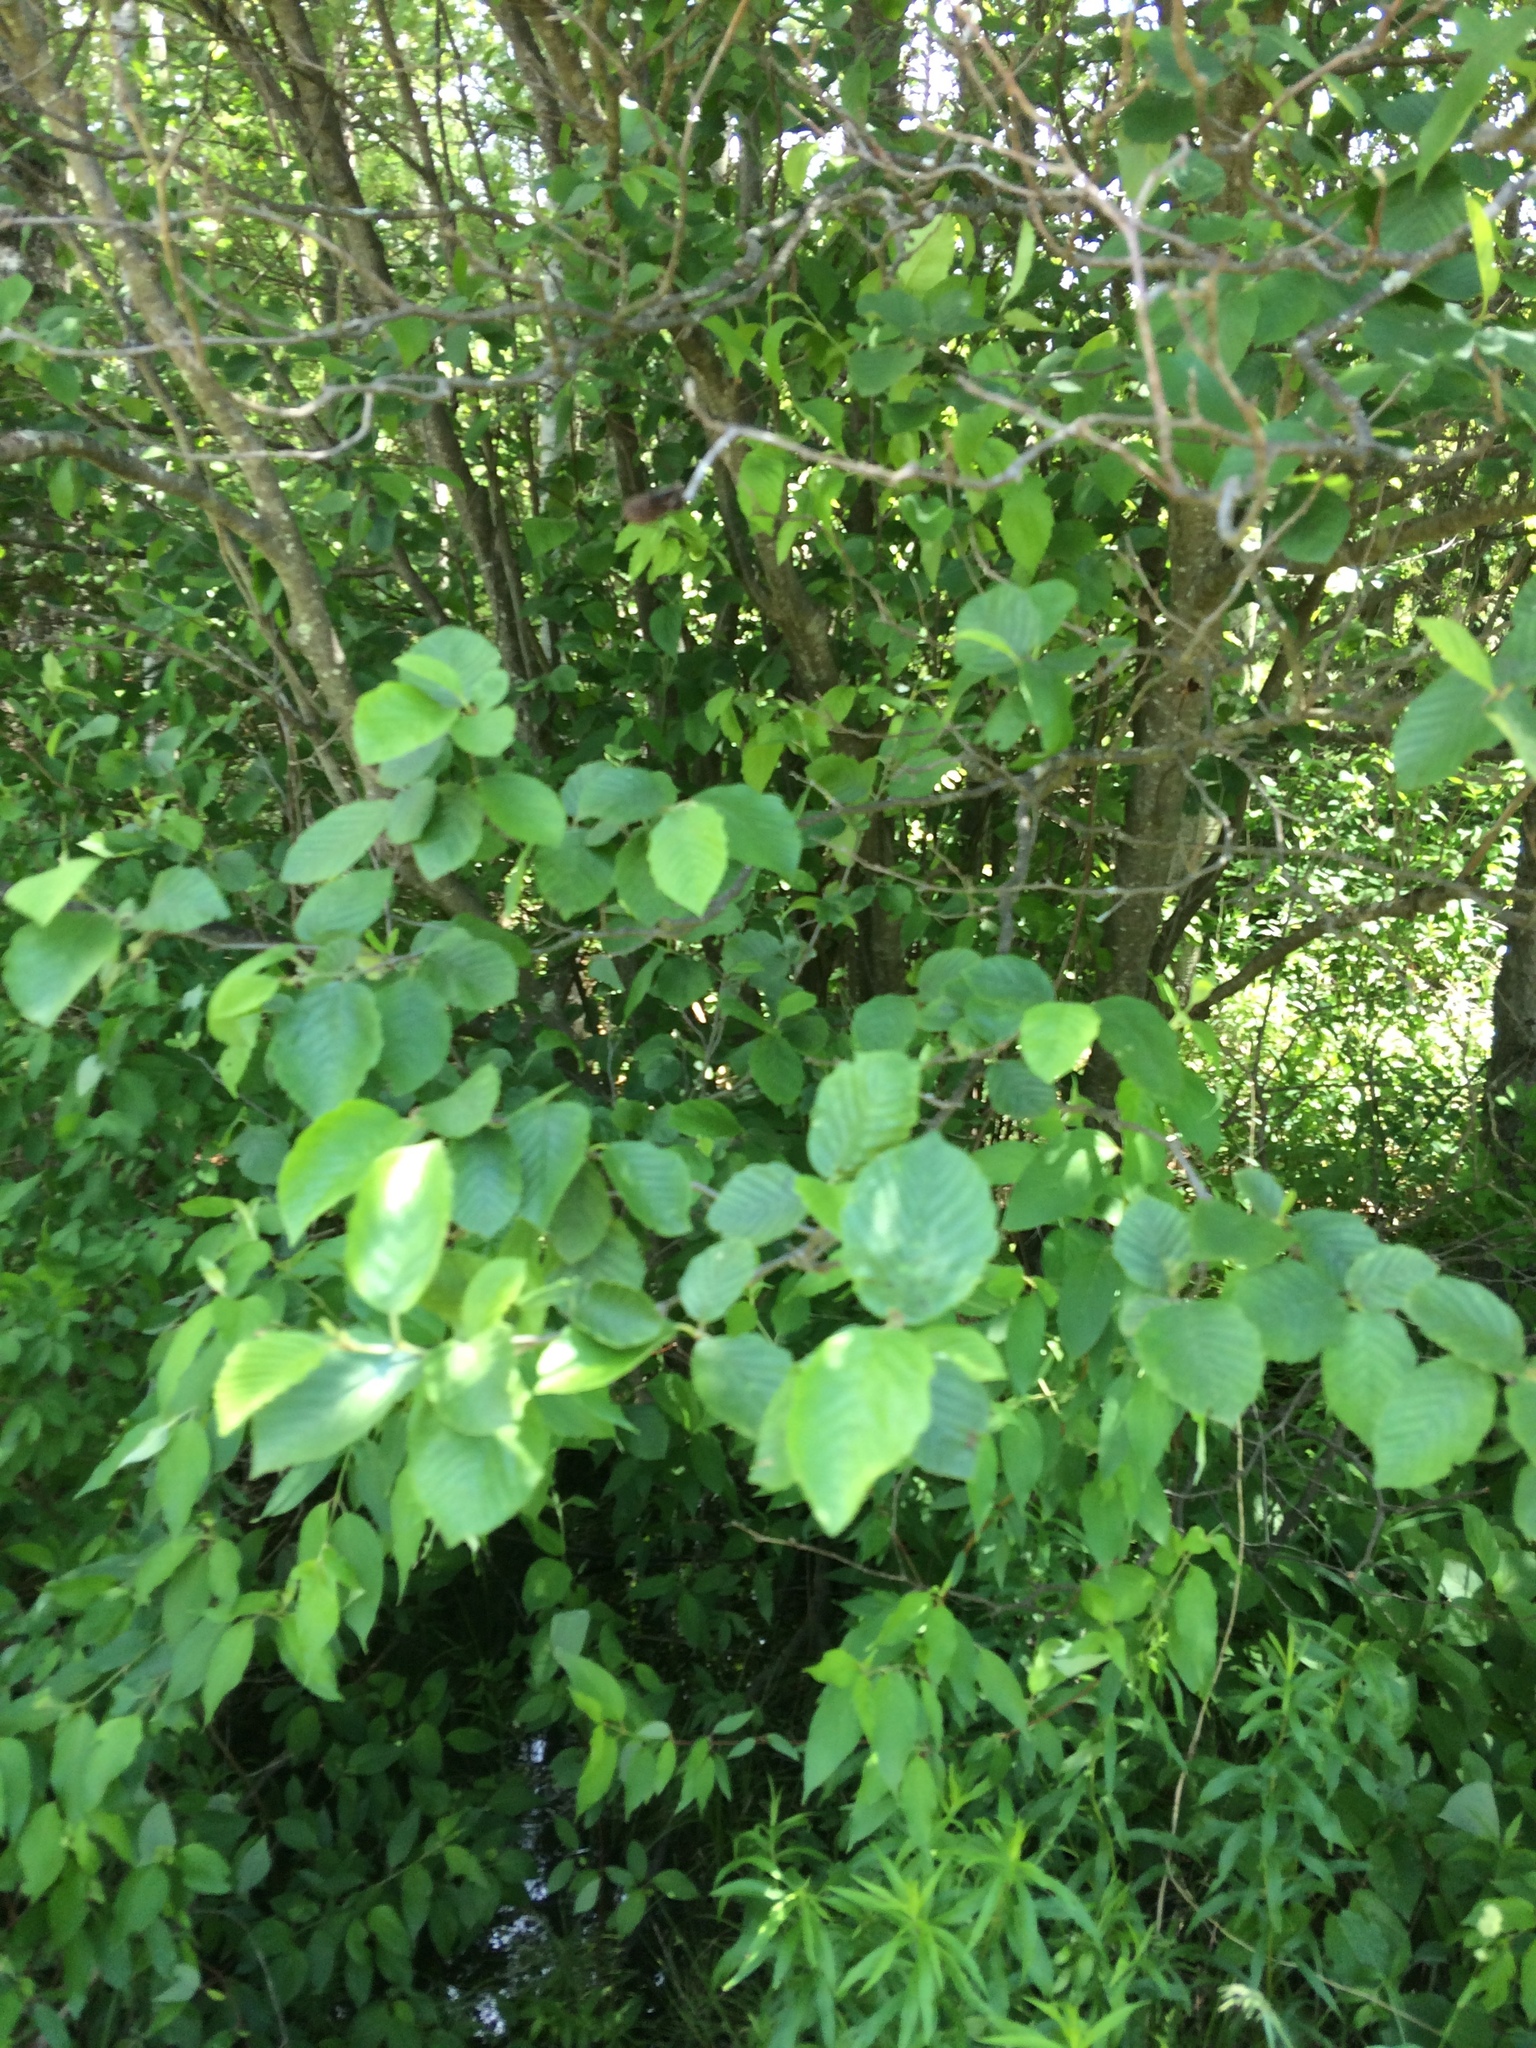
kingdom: Plantae
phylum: Tracheophyta
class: Magnoliopsida
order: Fagales
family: Betulaceae
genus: Alnus
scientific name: Alnus incana
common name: Grey alder
